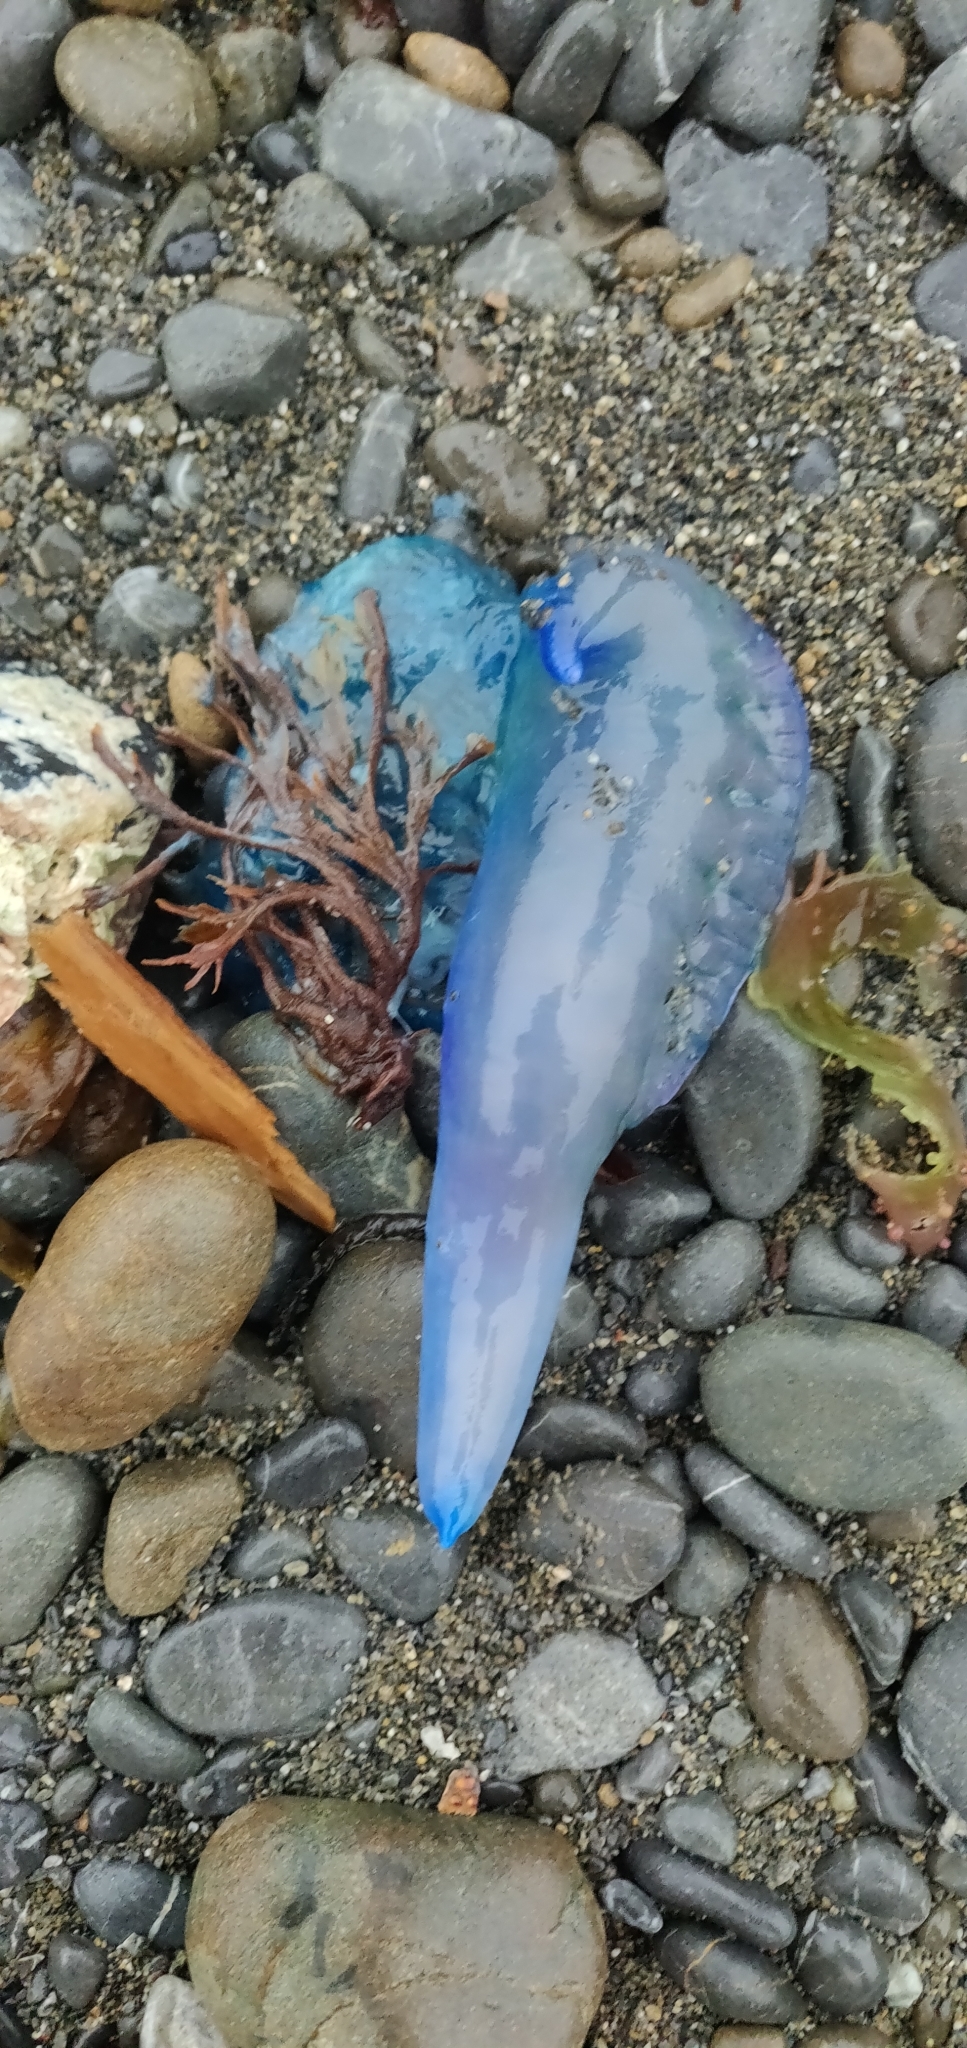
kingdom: Animalia
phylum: Cnidaria
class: Hydrozoa
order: Siphonophorae
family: Physaliidae
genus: Physalia
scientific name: Physalia physalis
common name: Portuguese man-of-war
